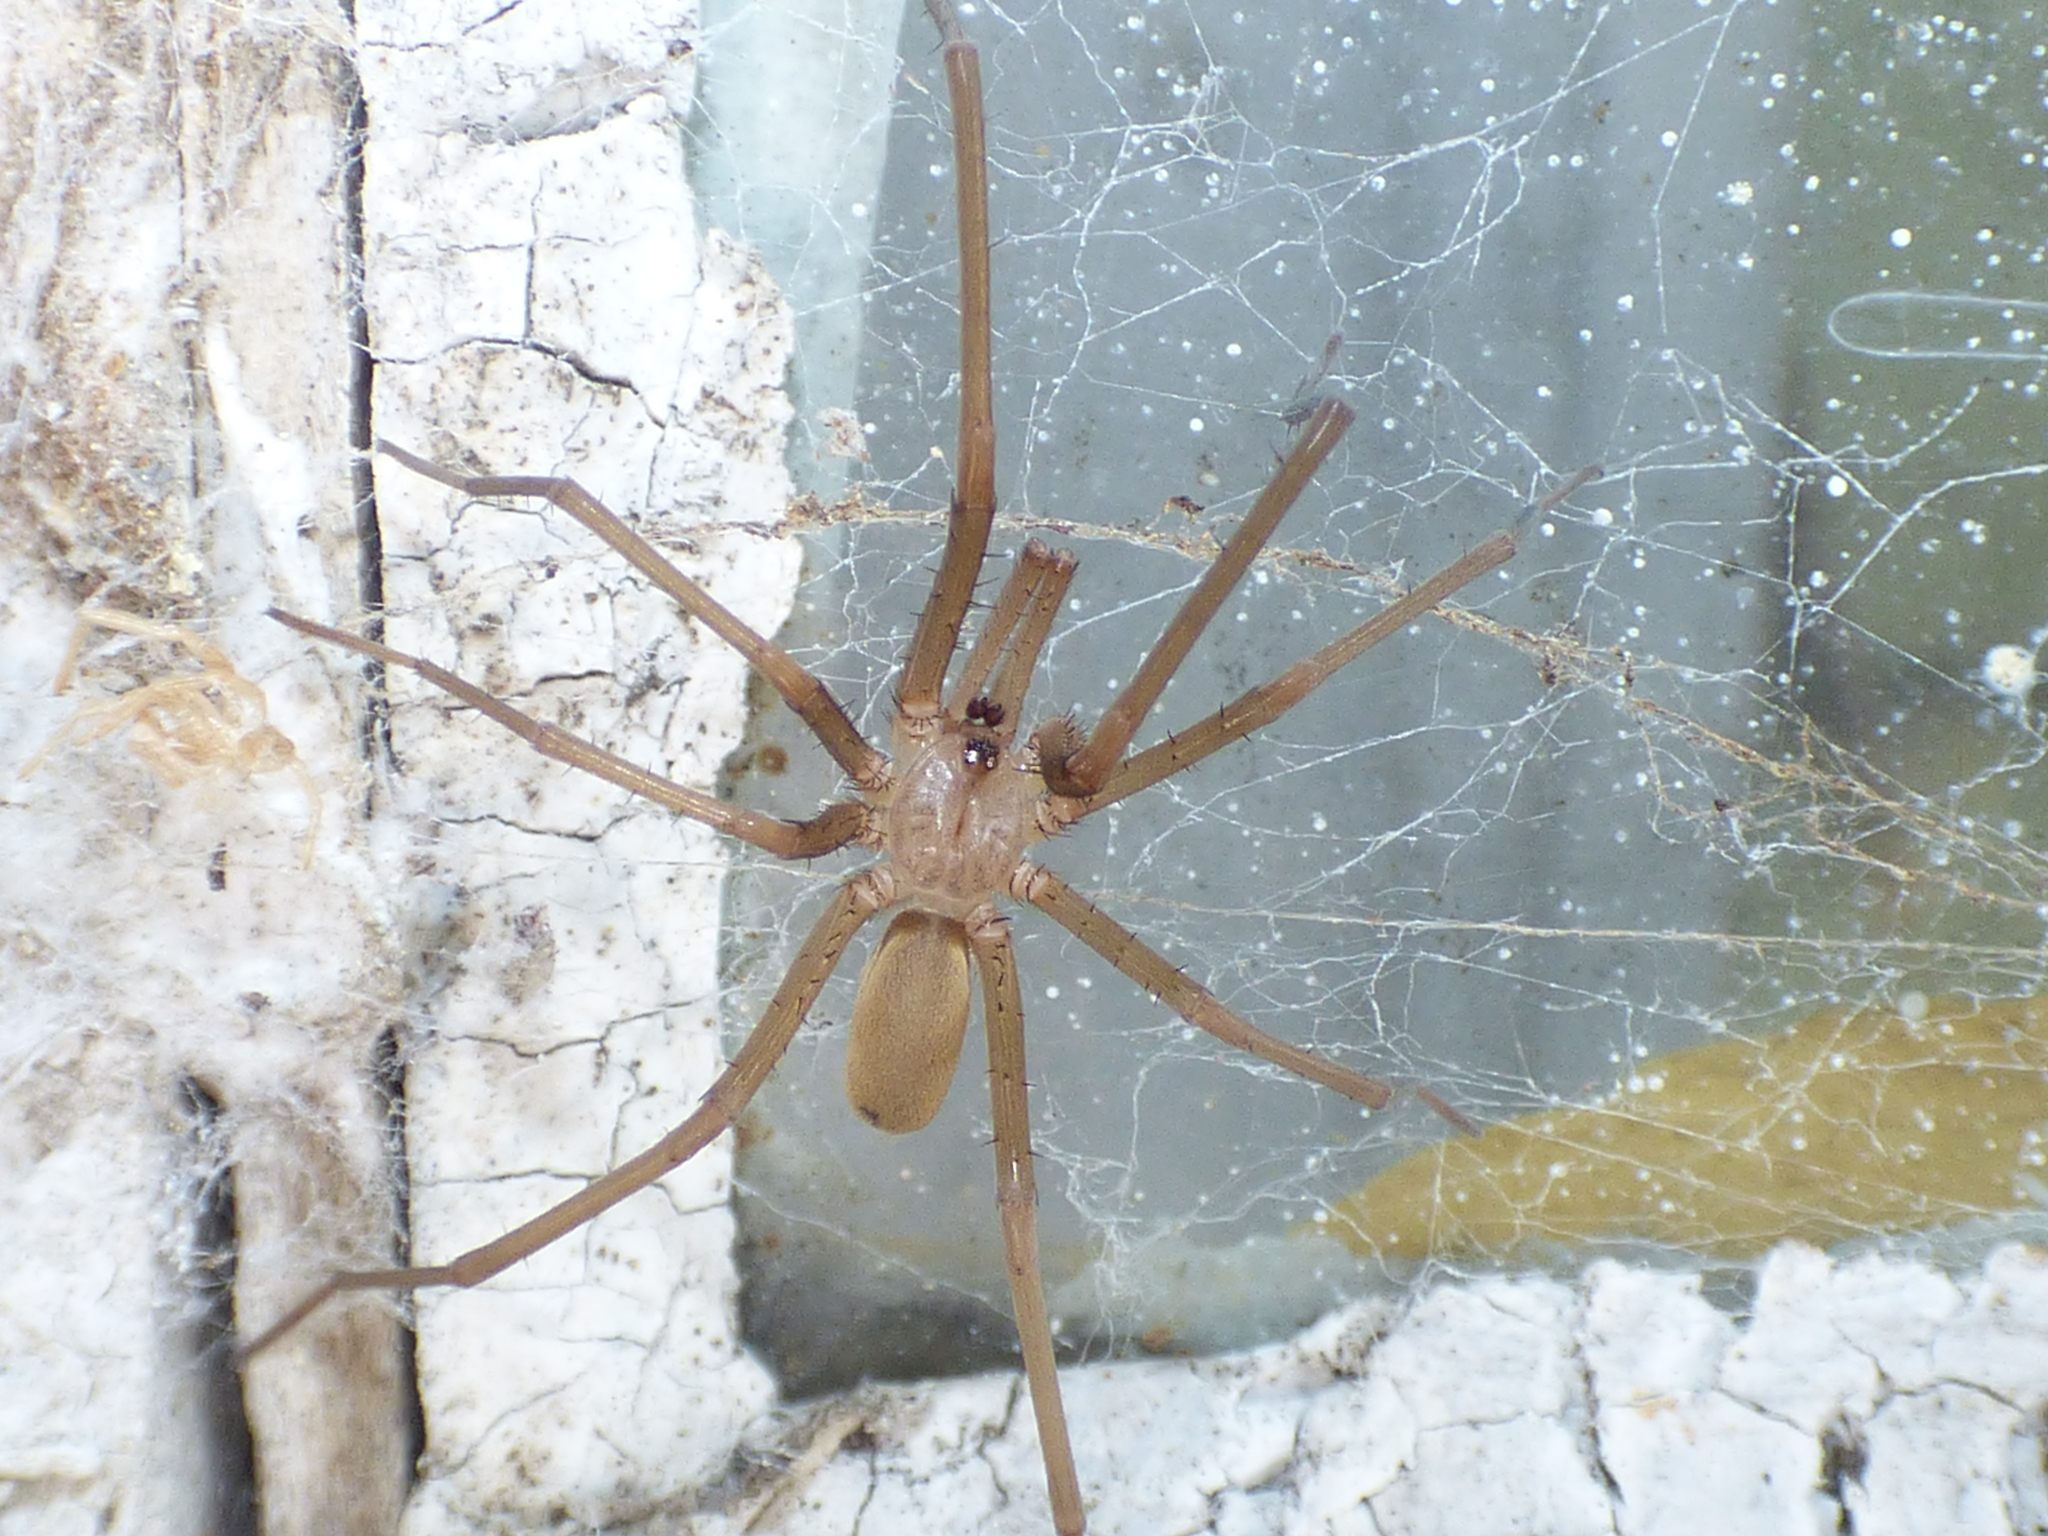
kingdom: Animalia
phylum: Arthropoda
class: Arachnida
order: Araneae
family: Filistatidae
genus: Kukulcania
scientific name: Kukulcania hibernalis
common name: Crevice weaver
